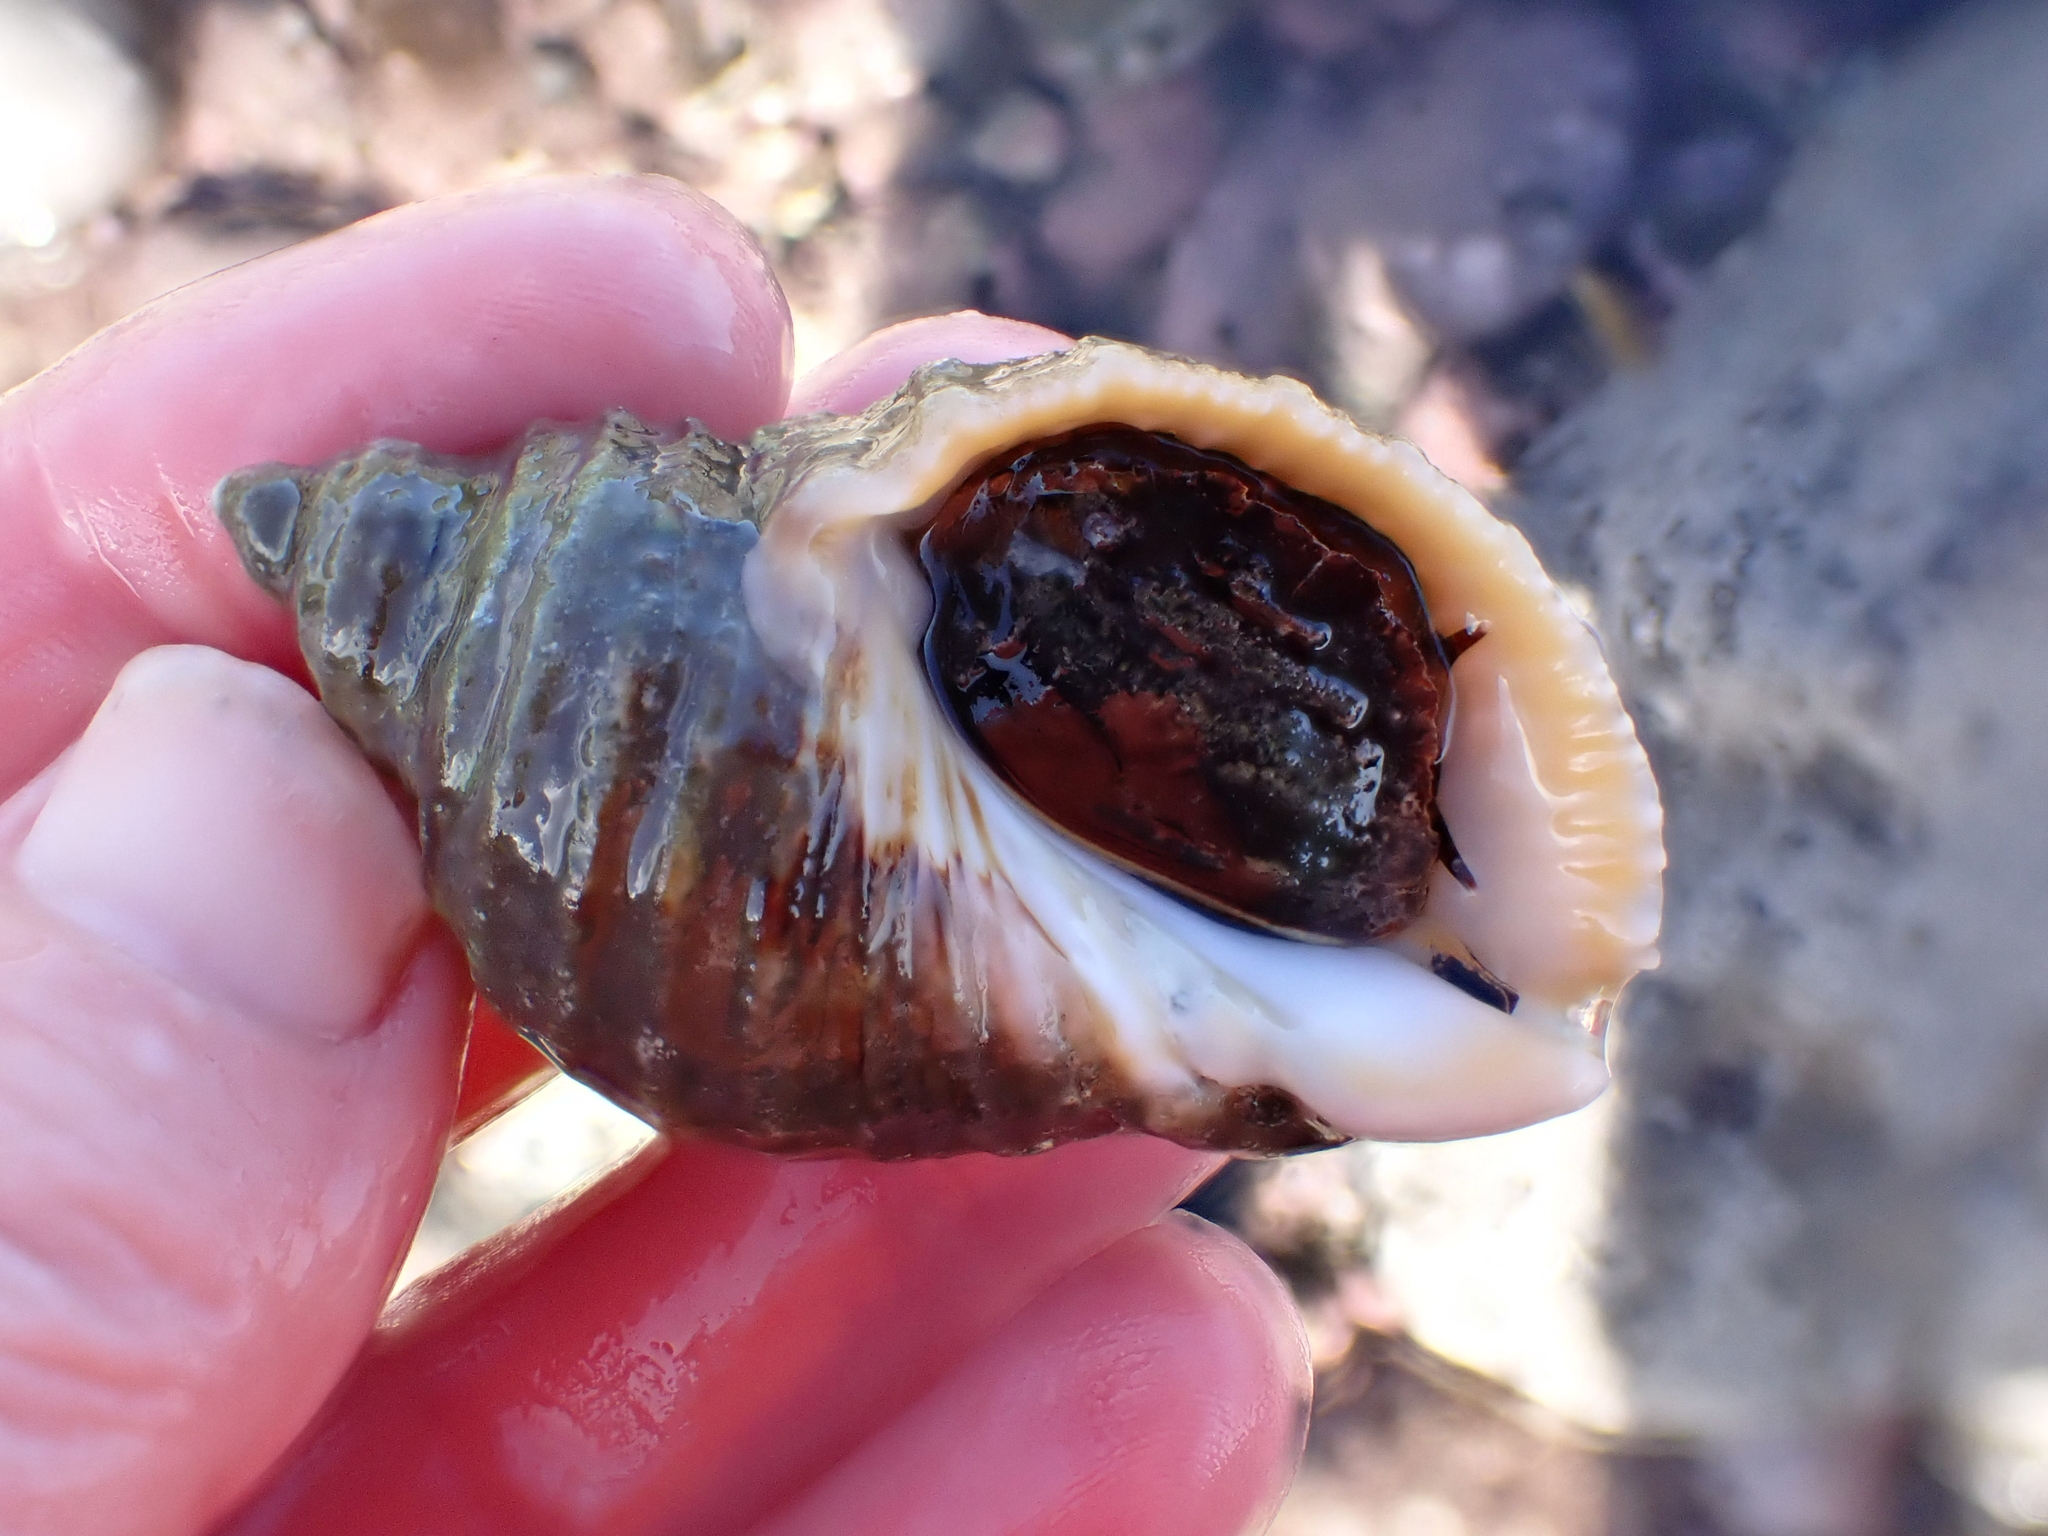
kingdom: Animalia
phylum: Mollusca
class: Gastropoda
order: Neogastropoda
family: Muricidae
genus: Dicathais
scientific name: Dicathais orbita
